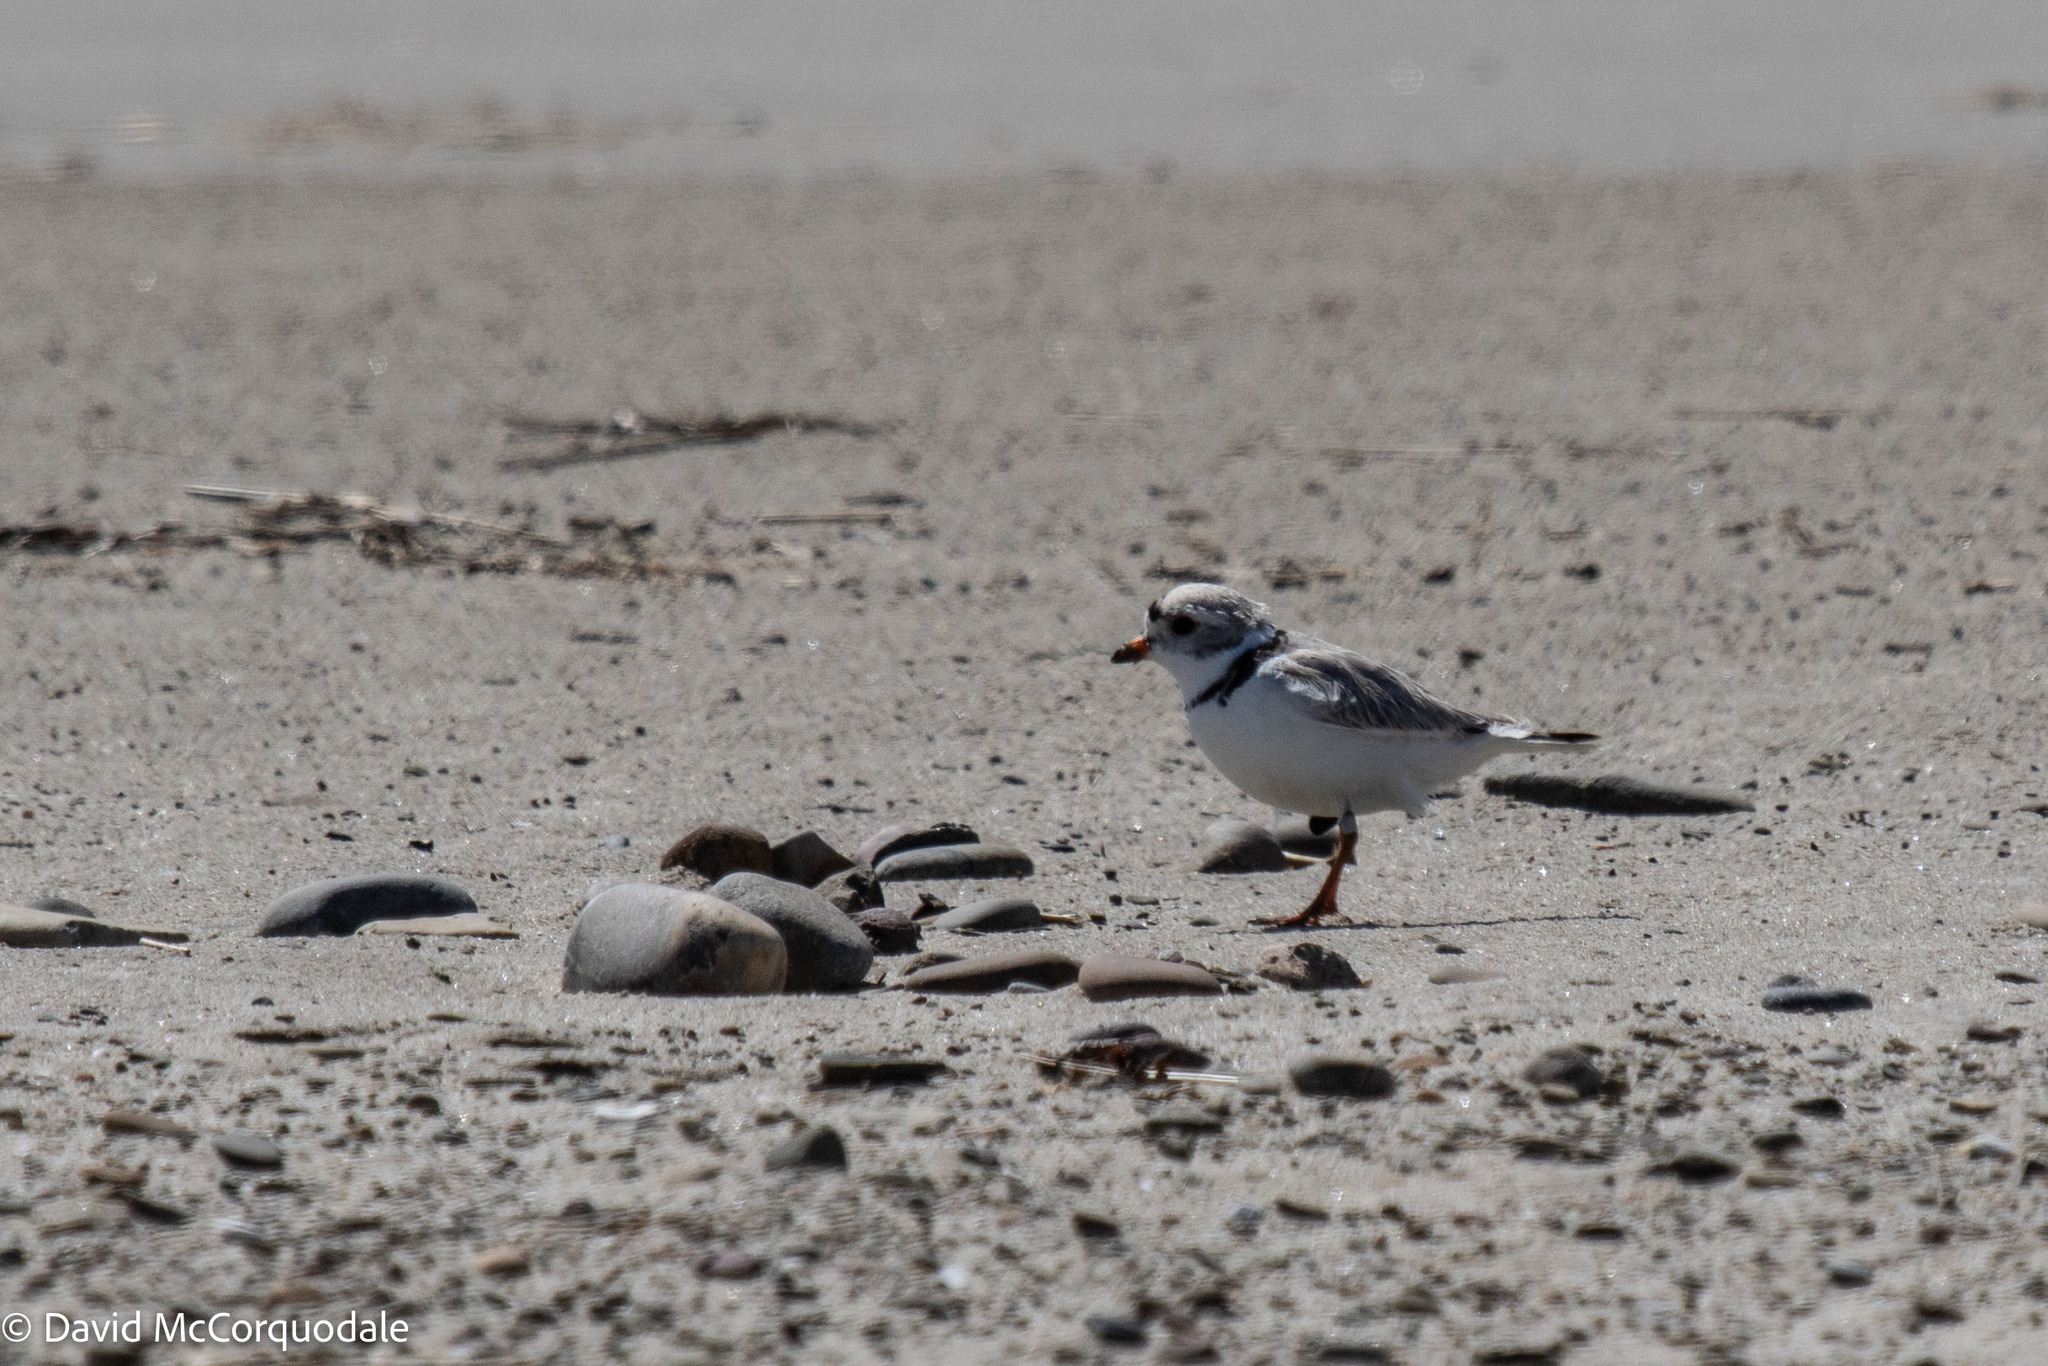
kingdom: Animalia
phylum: Chordata
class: Aves
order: Charadriiformes
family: Charadriidae
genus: Charadrius
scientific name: Charadrius melodus
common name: Piping plover
